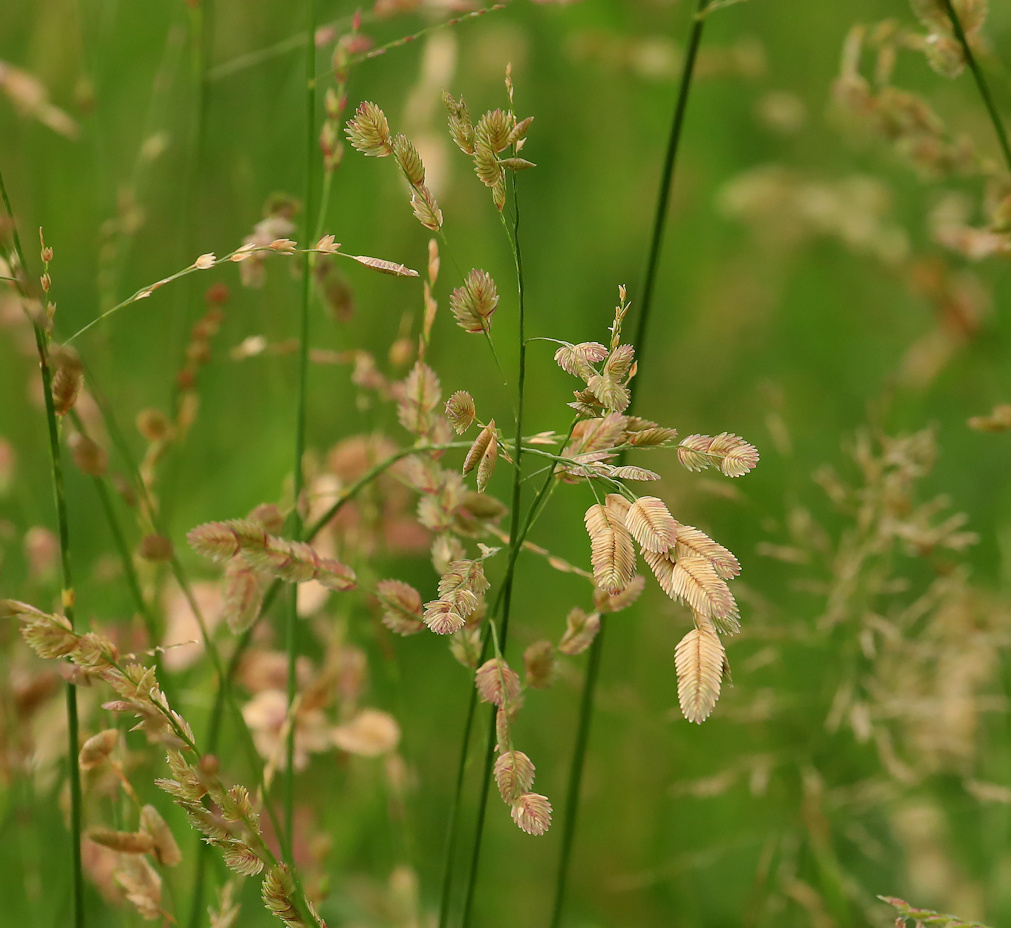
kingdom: Plantae
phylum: Tracheophyta
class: Liliopsida
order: Poales
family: Poaceae
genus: Eragrostis
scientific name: Eragrostis superba
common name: Wilman lovegrass
